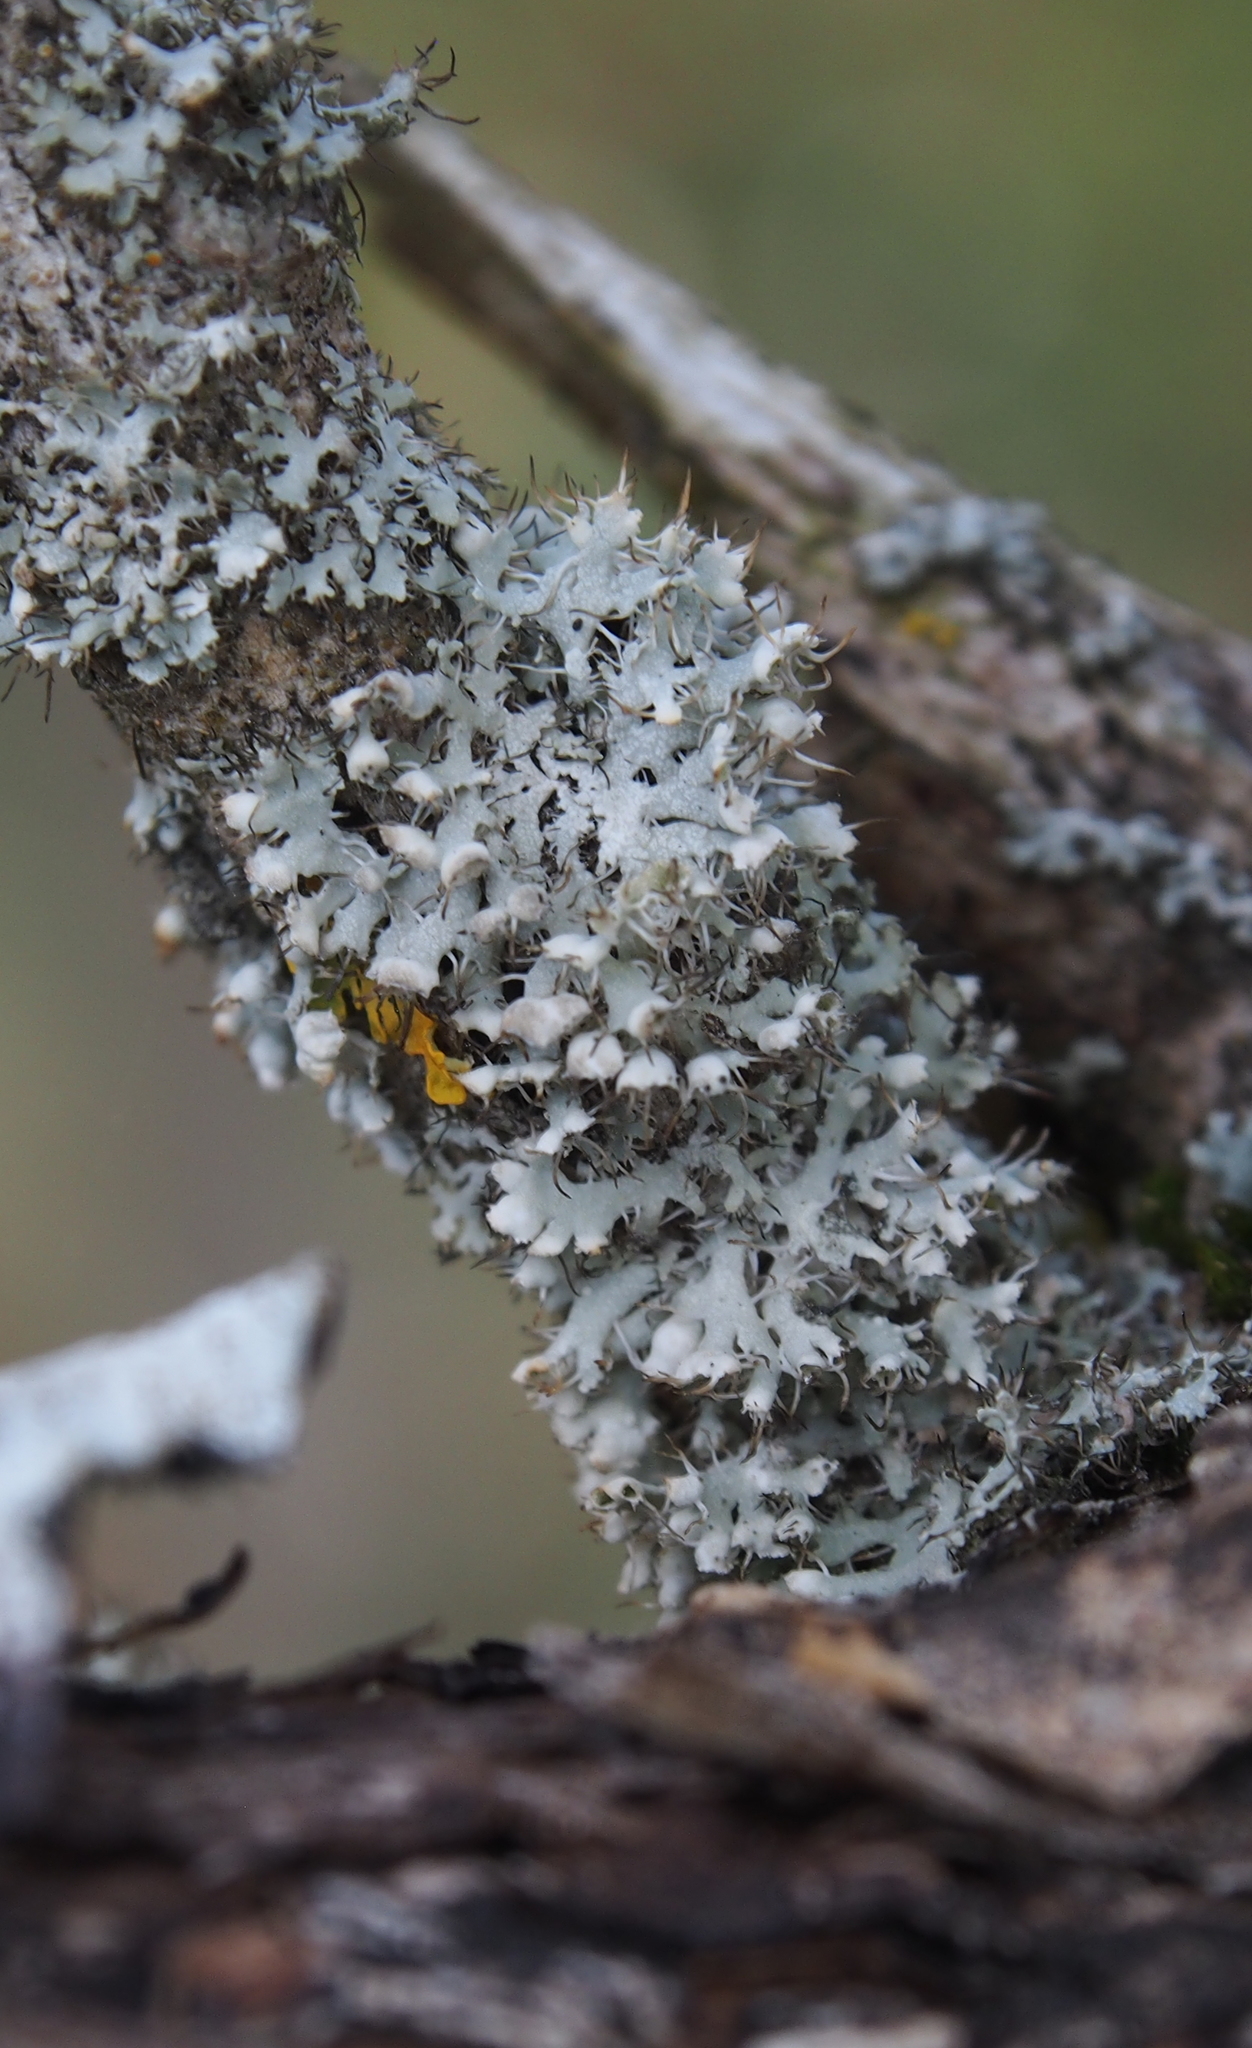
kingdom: Fungi
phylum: Ascomycota
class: Lecanoromycetes
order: Caliciales
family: Physciaceae
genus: Physcia
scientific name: Physcia adscendens
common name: Hooded rosette lichen
